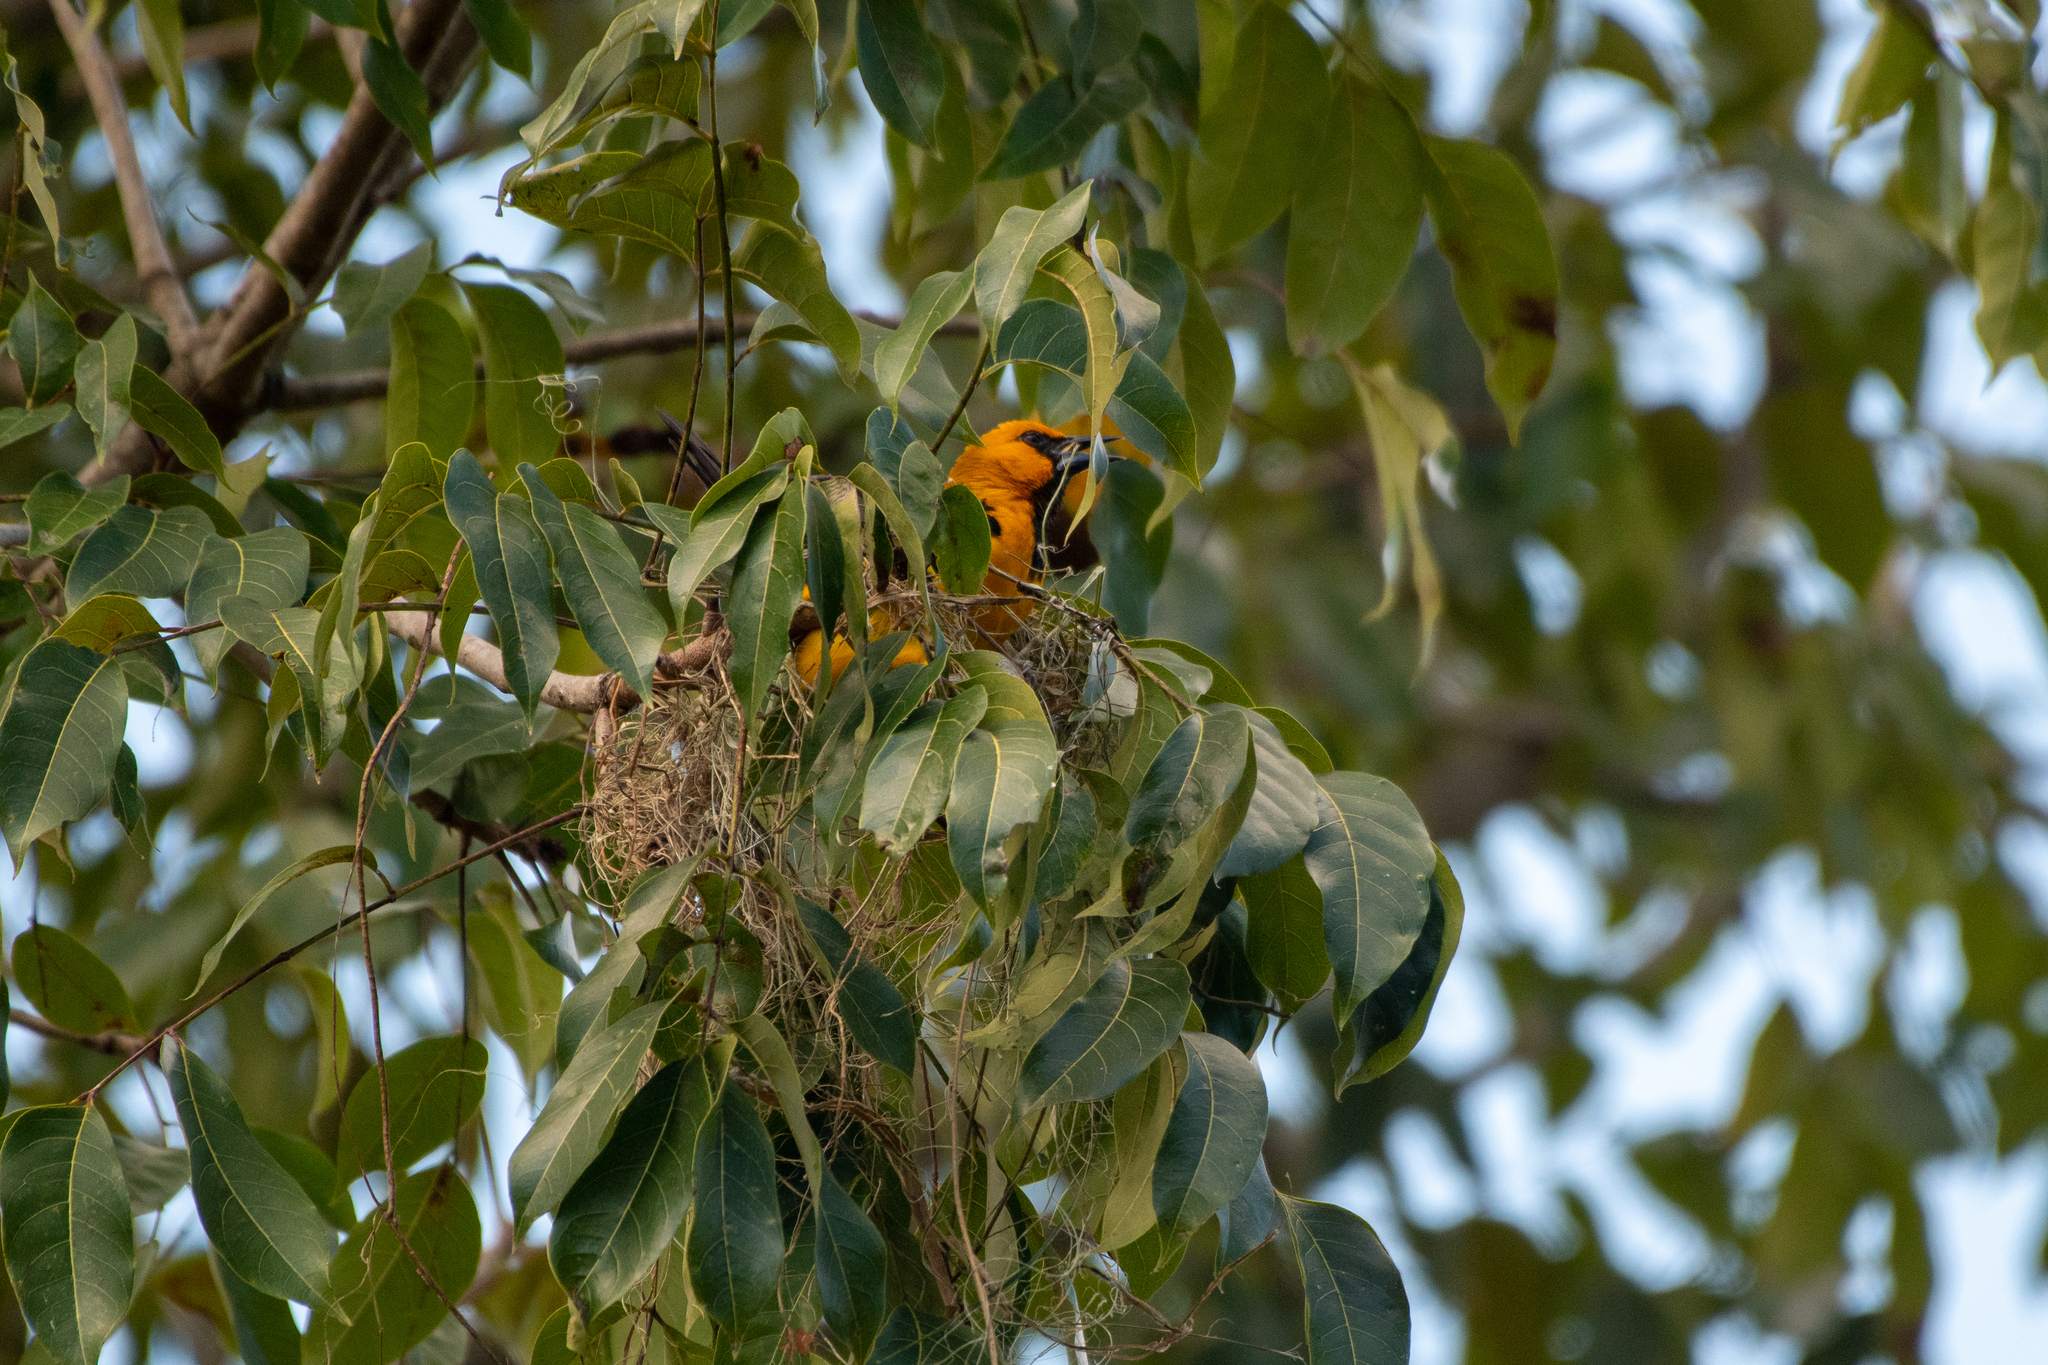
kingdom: Animalia
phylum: Chordata
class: Aves
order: Passeriformes
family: Icteridae
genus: Icterus
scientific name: Icterus gularis
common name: Altamira oriole
